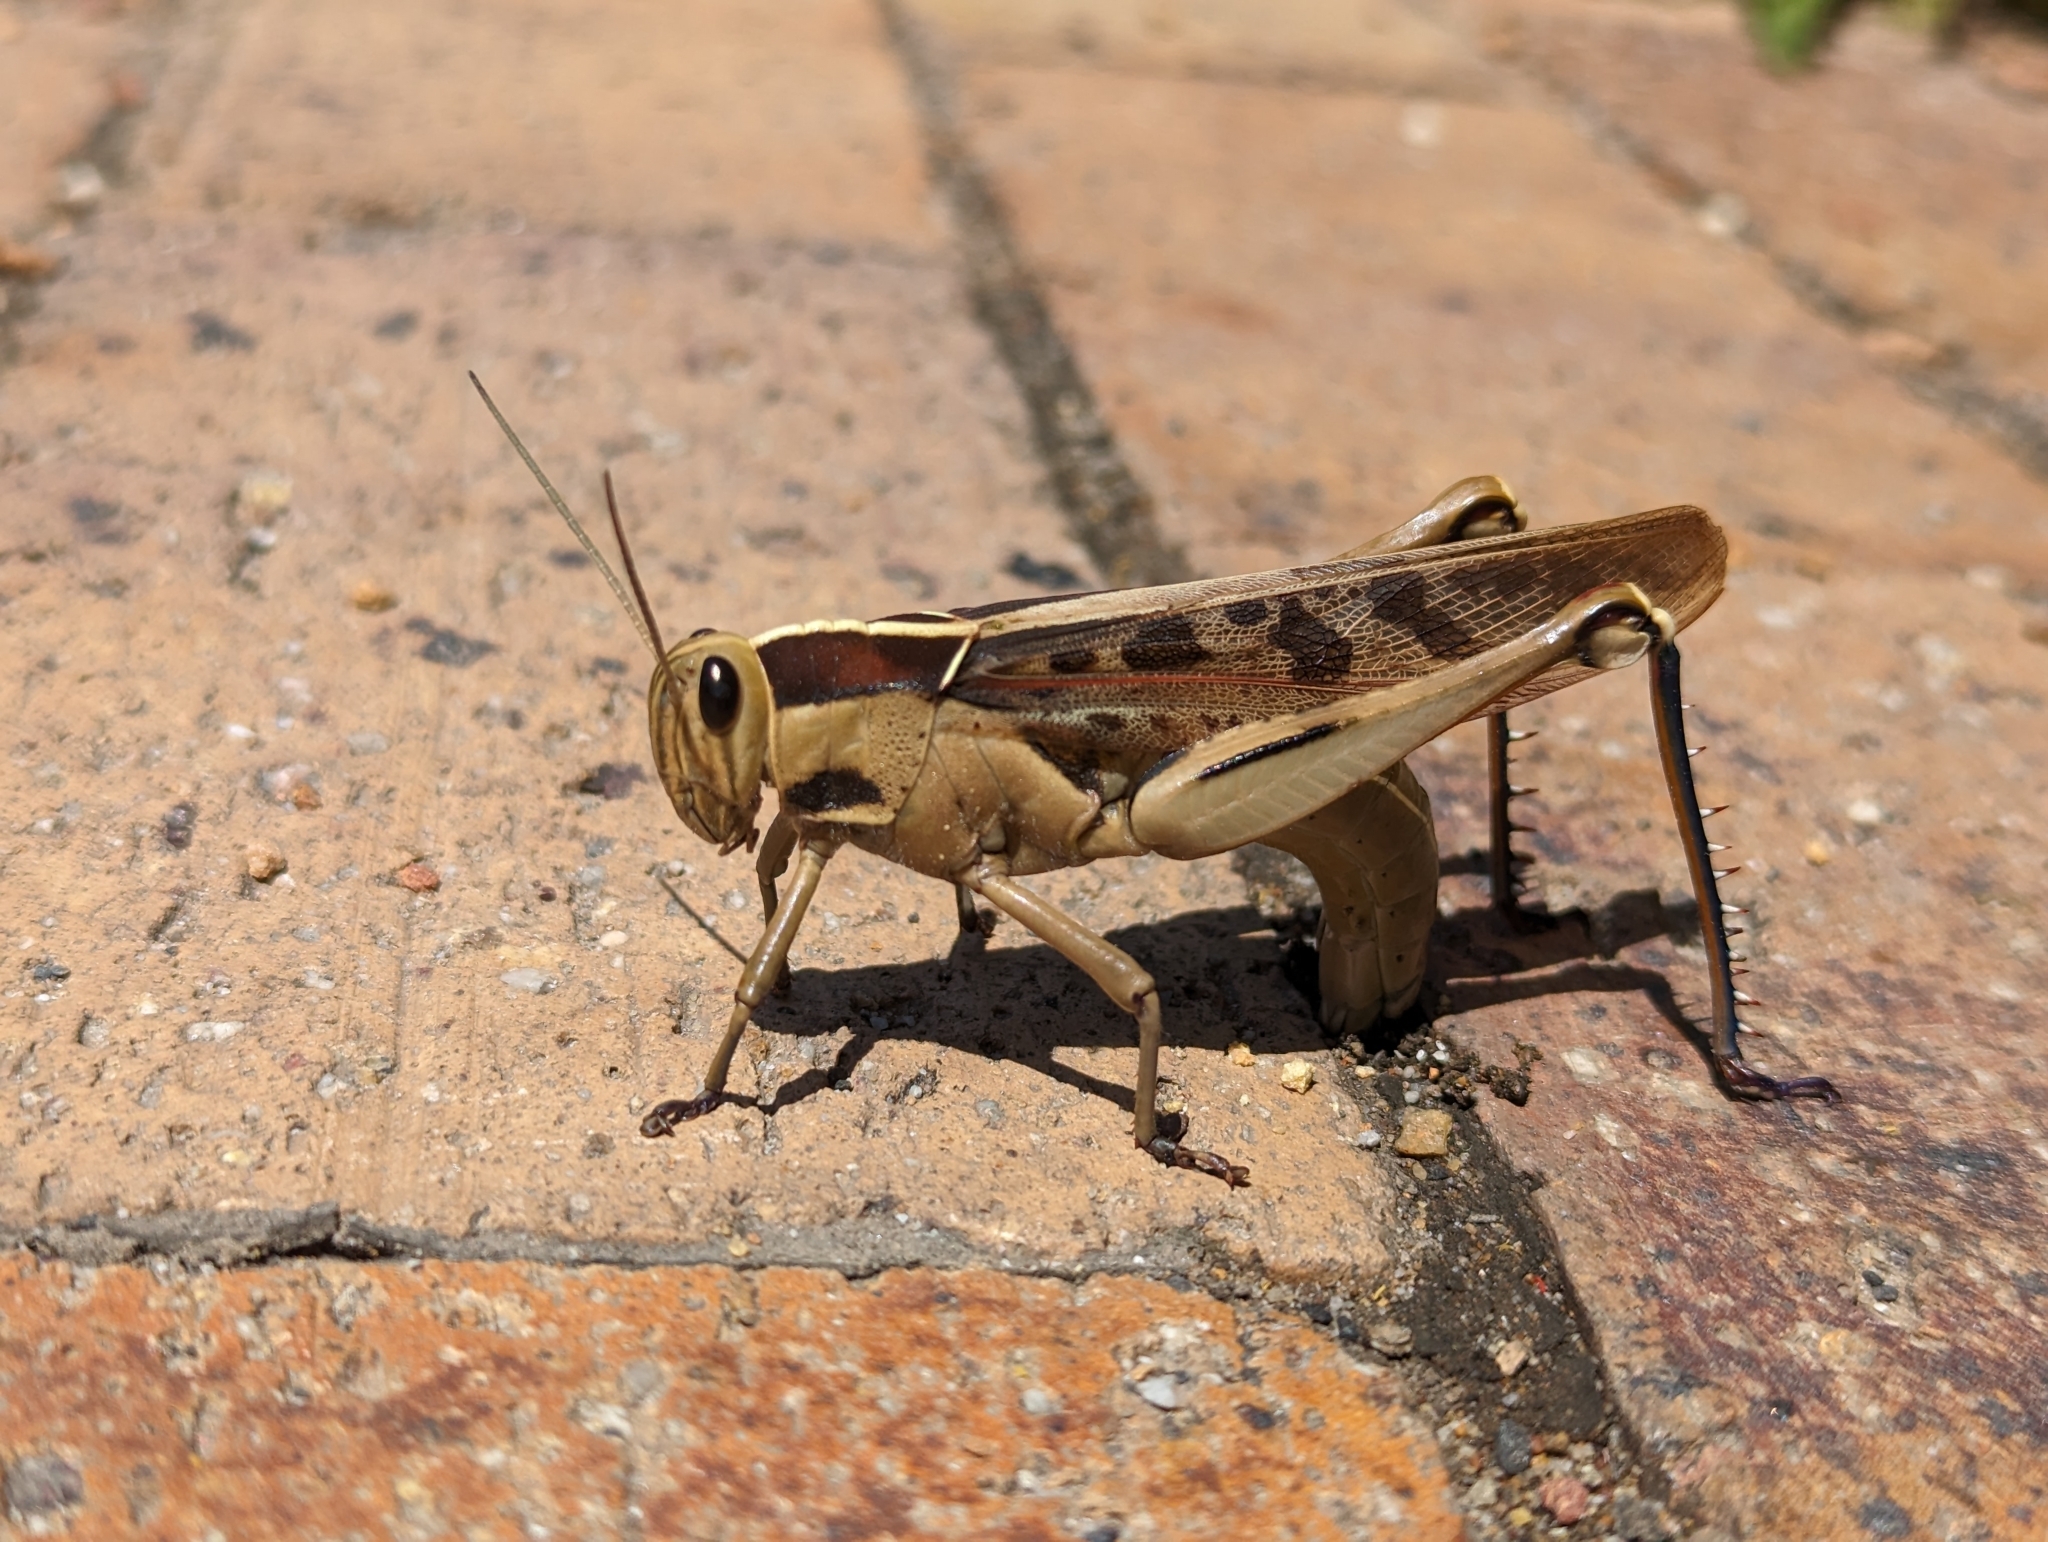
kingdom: Animalia
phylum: Arthropoda
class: Insecta
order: Orthoptera
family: Acrididae
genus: Acanthacris
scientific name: Acanthacris ruficornis
